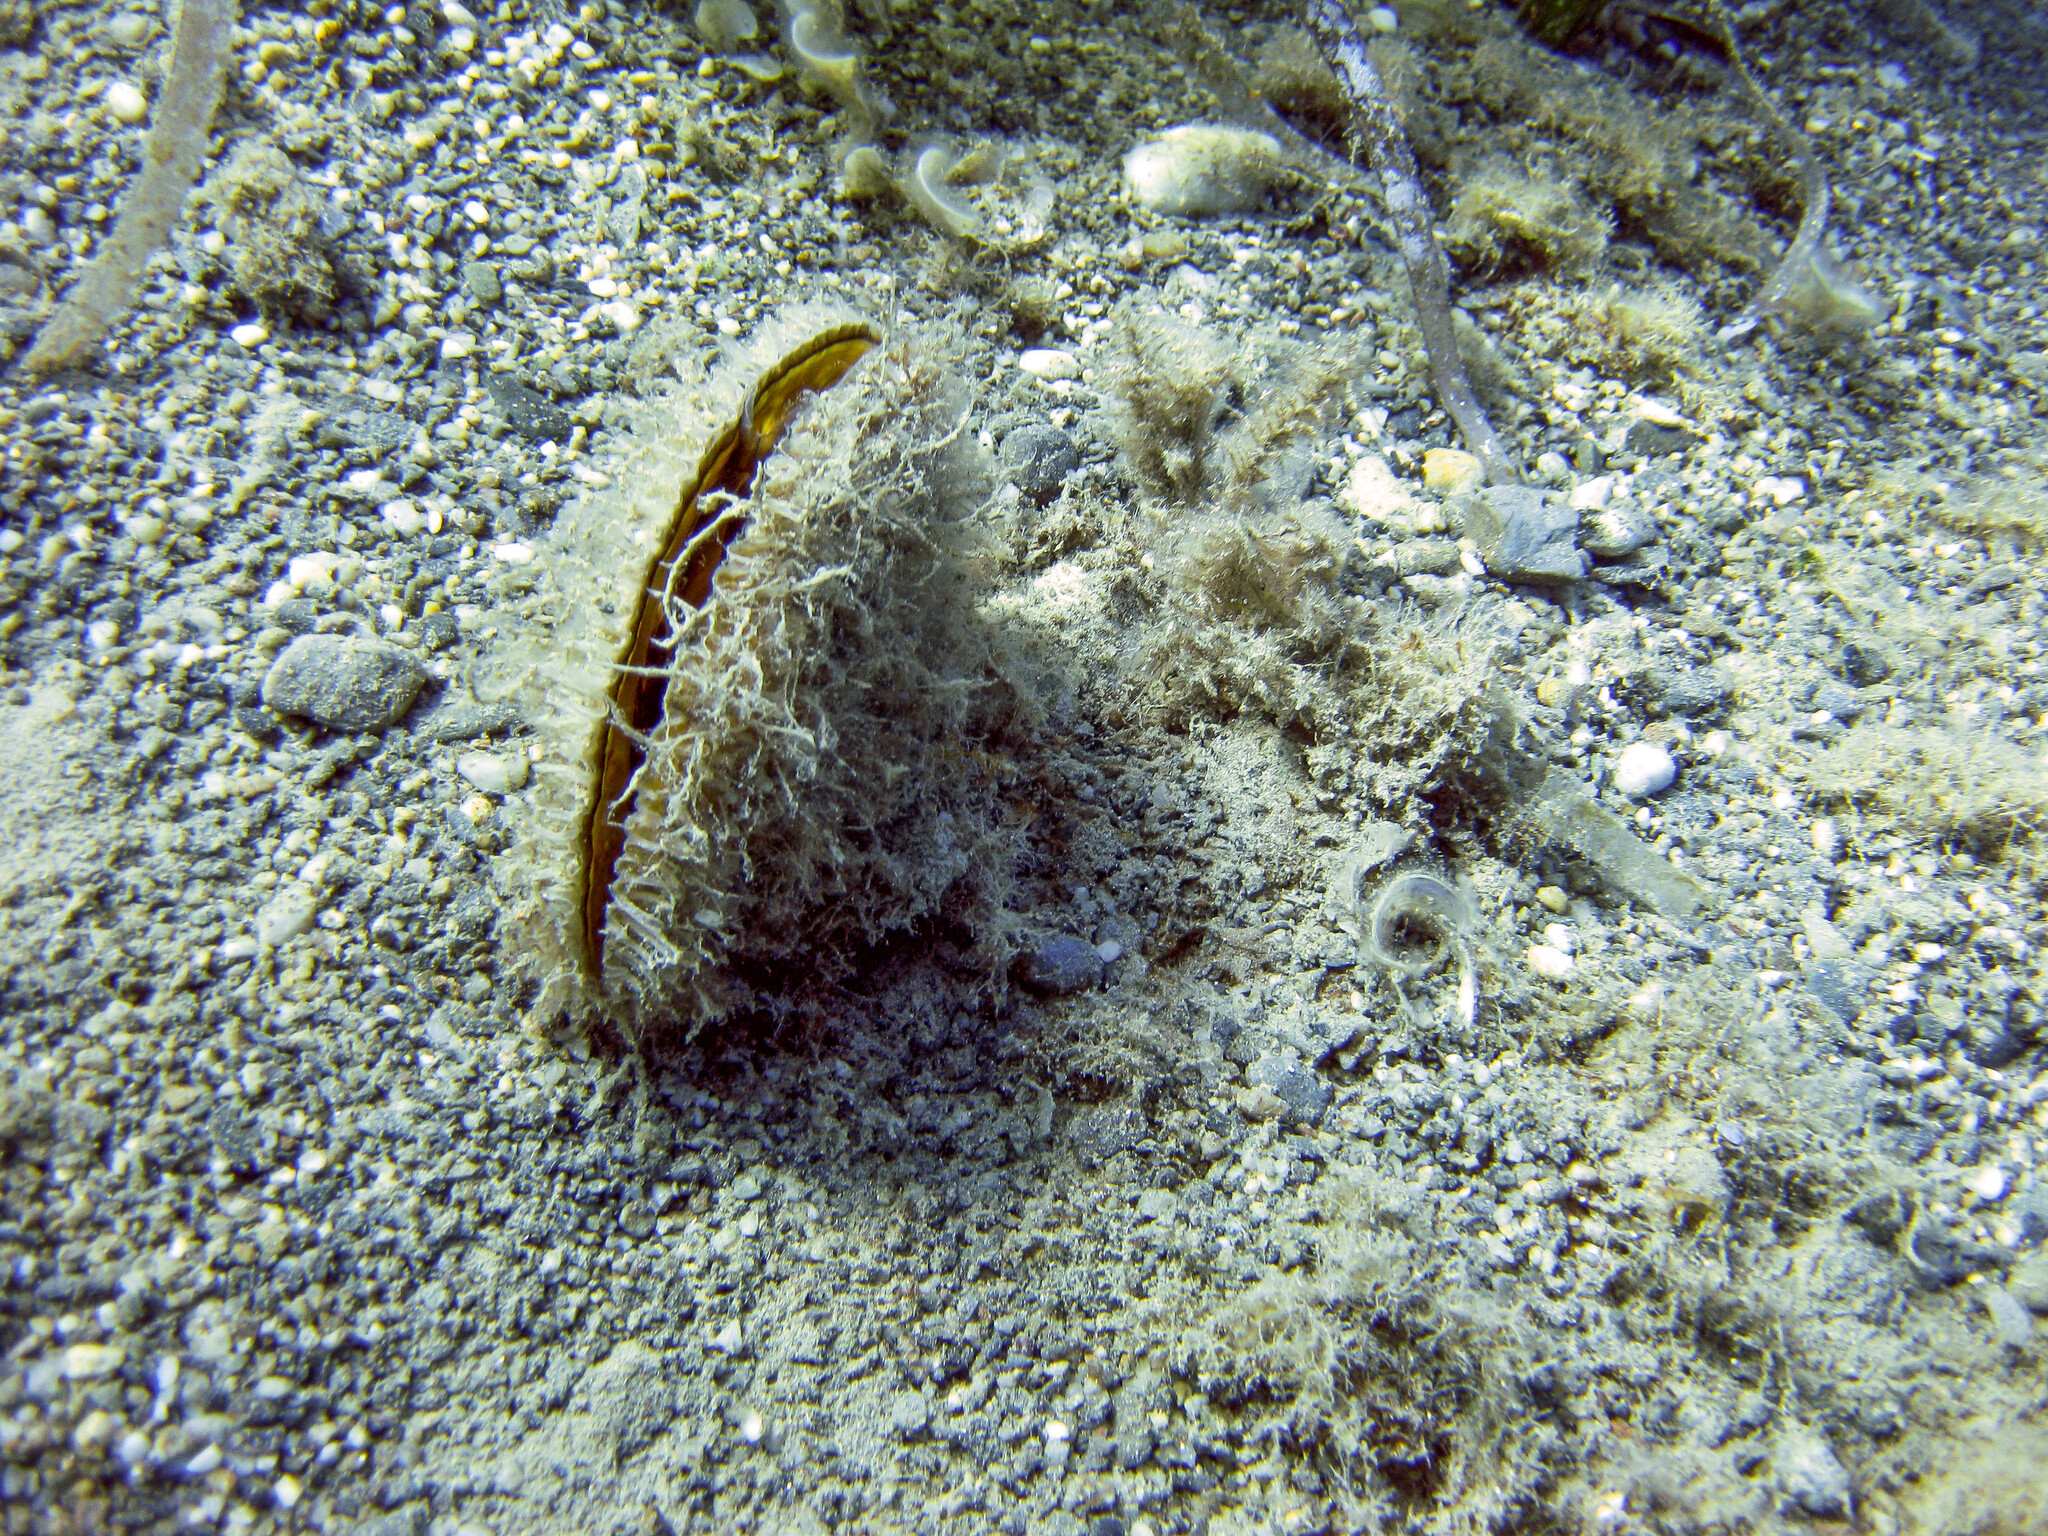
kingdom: Animalia
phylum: Mollusca
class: Bivalvia
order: Ostreida
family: Pinnidae
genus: Pinna
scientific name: Pinna nobilis
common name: Fan mussel
